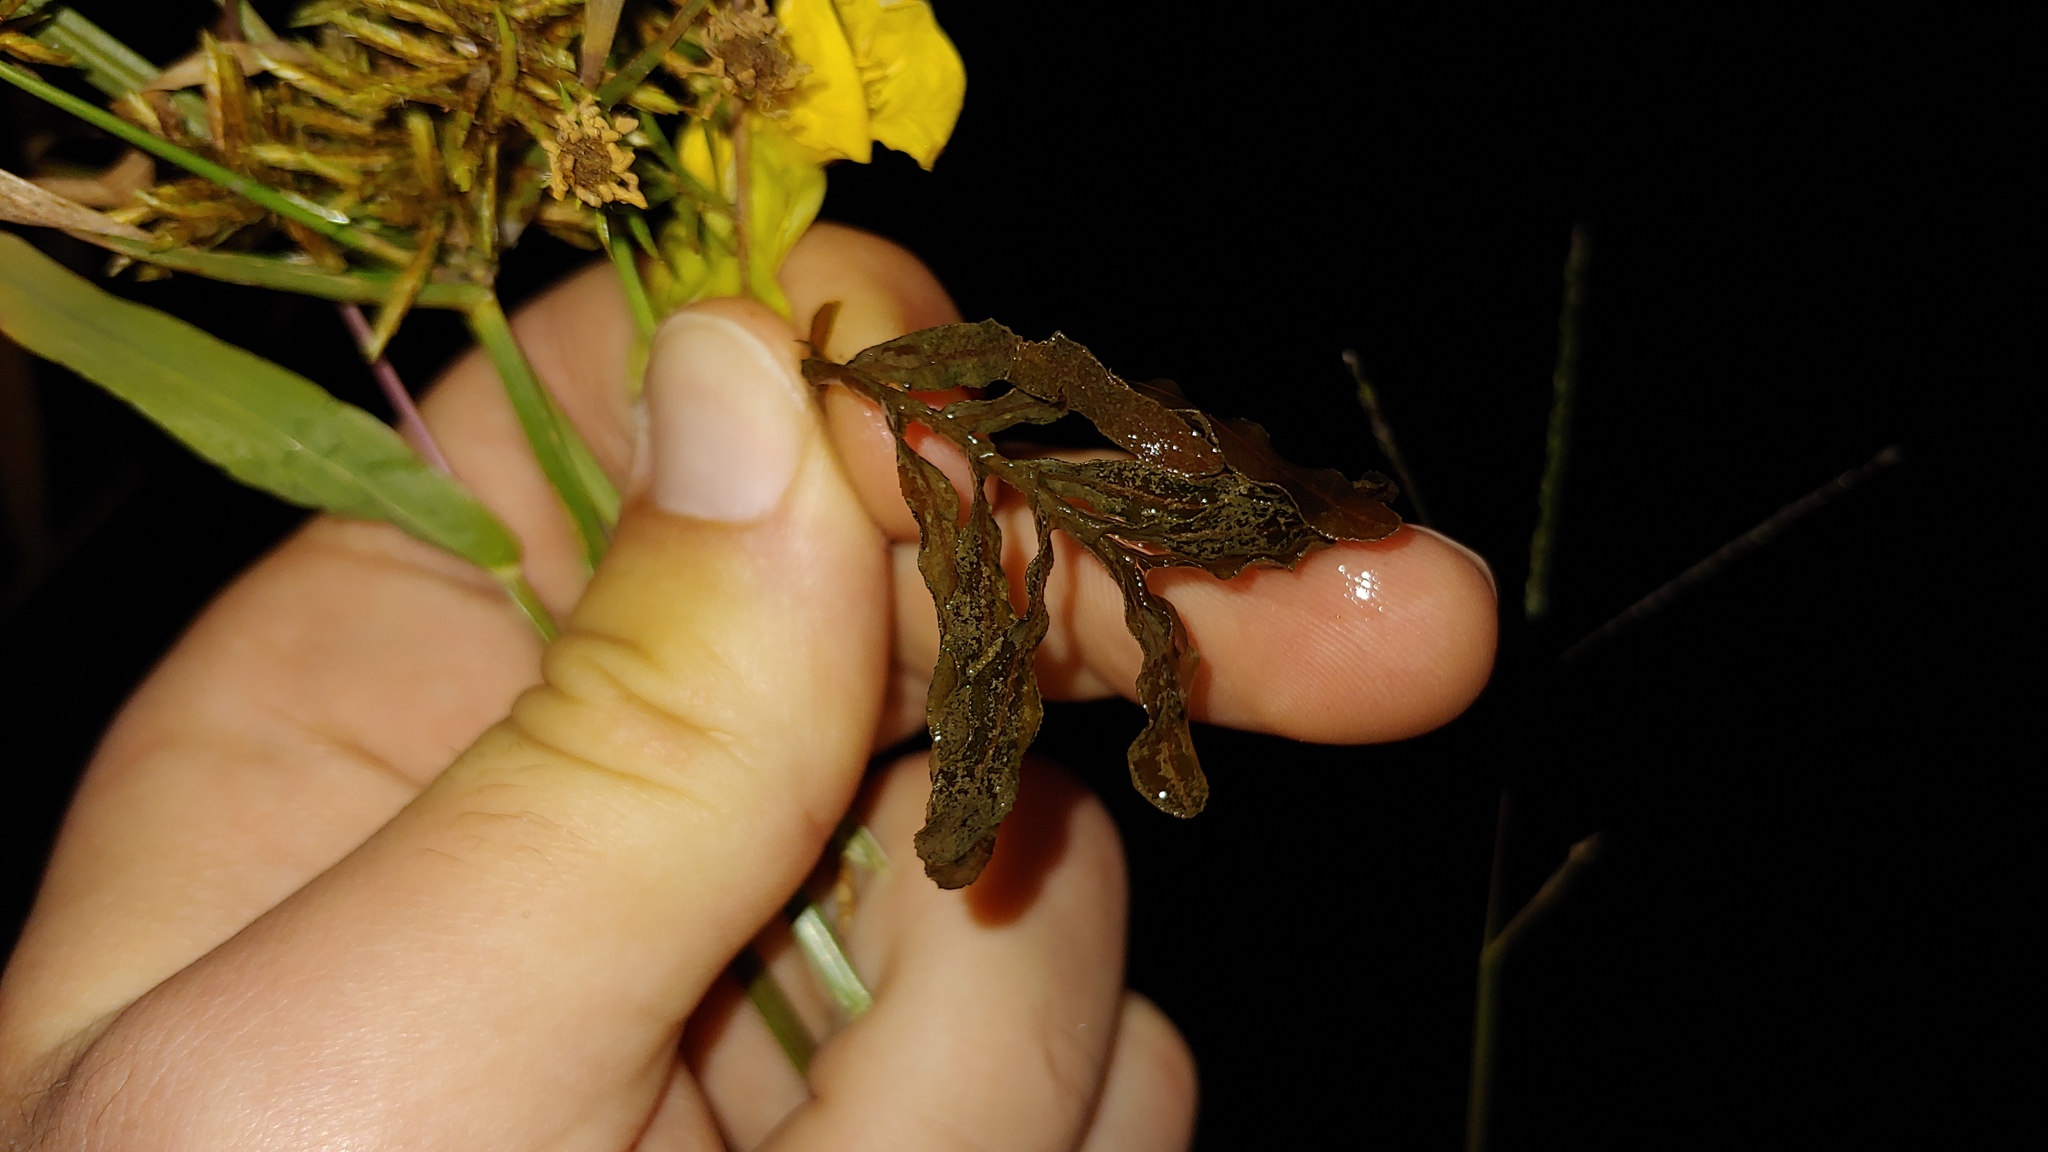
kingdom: Plantae
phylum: Tracheophyta
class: Liliopsida
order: Alismatales
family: Potamogetonaceae
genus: Potamogeton
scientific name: Potamogeton crispus
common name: Curled pondweed
